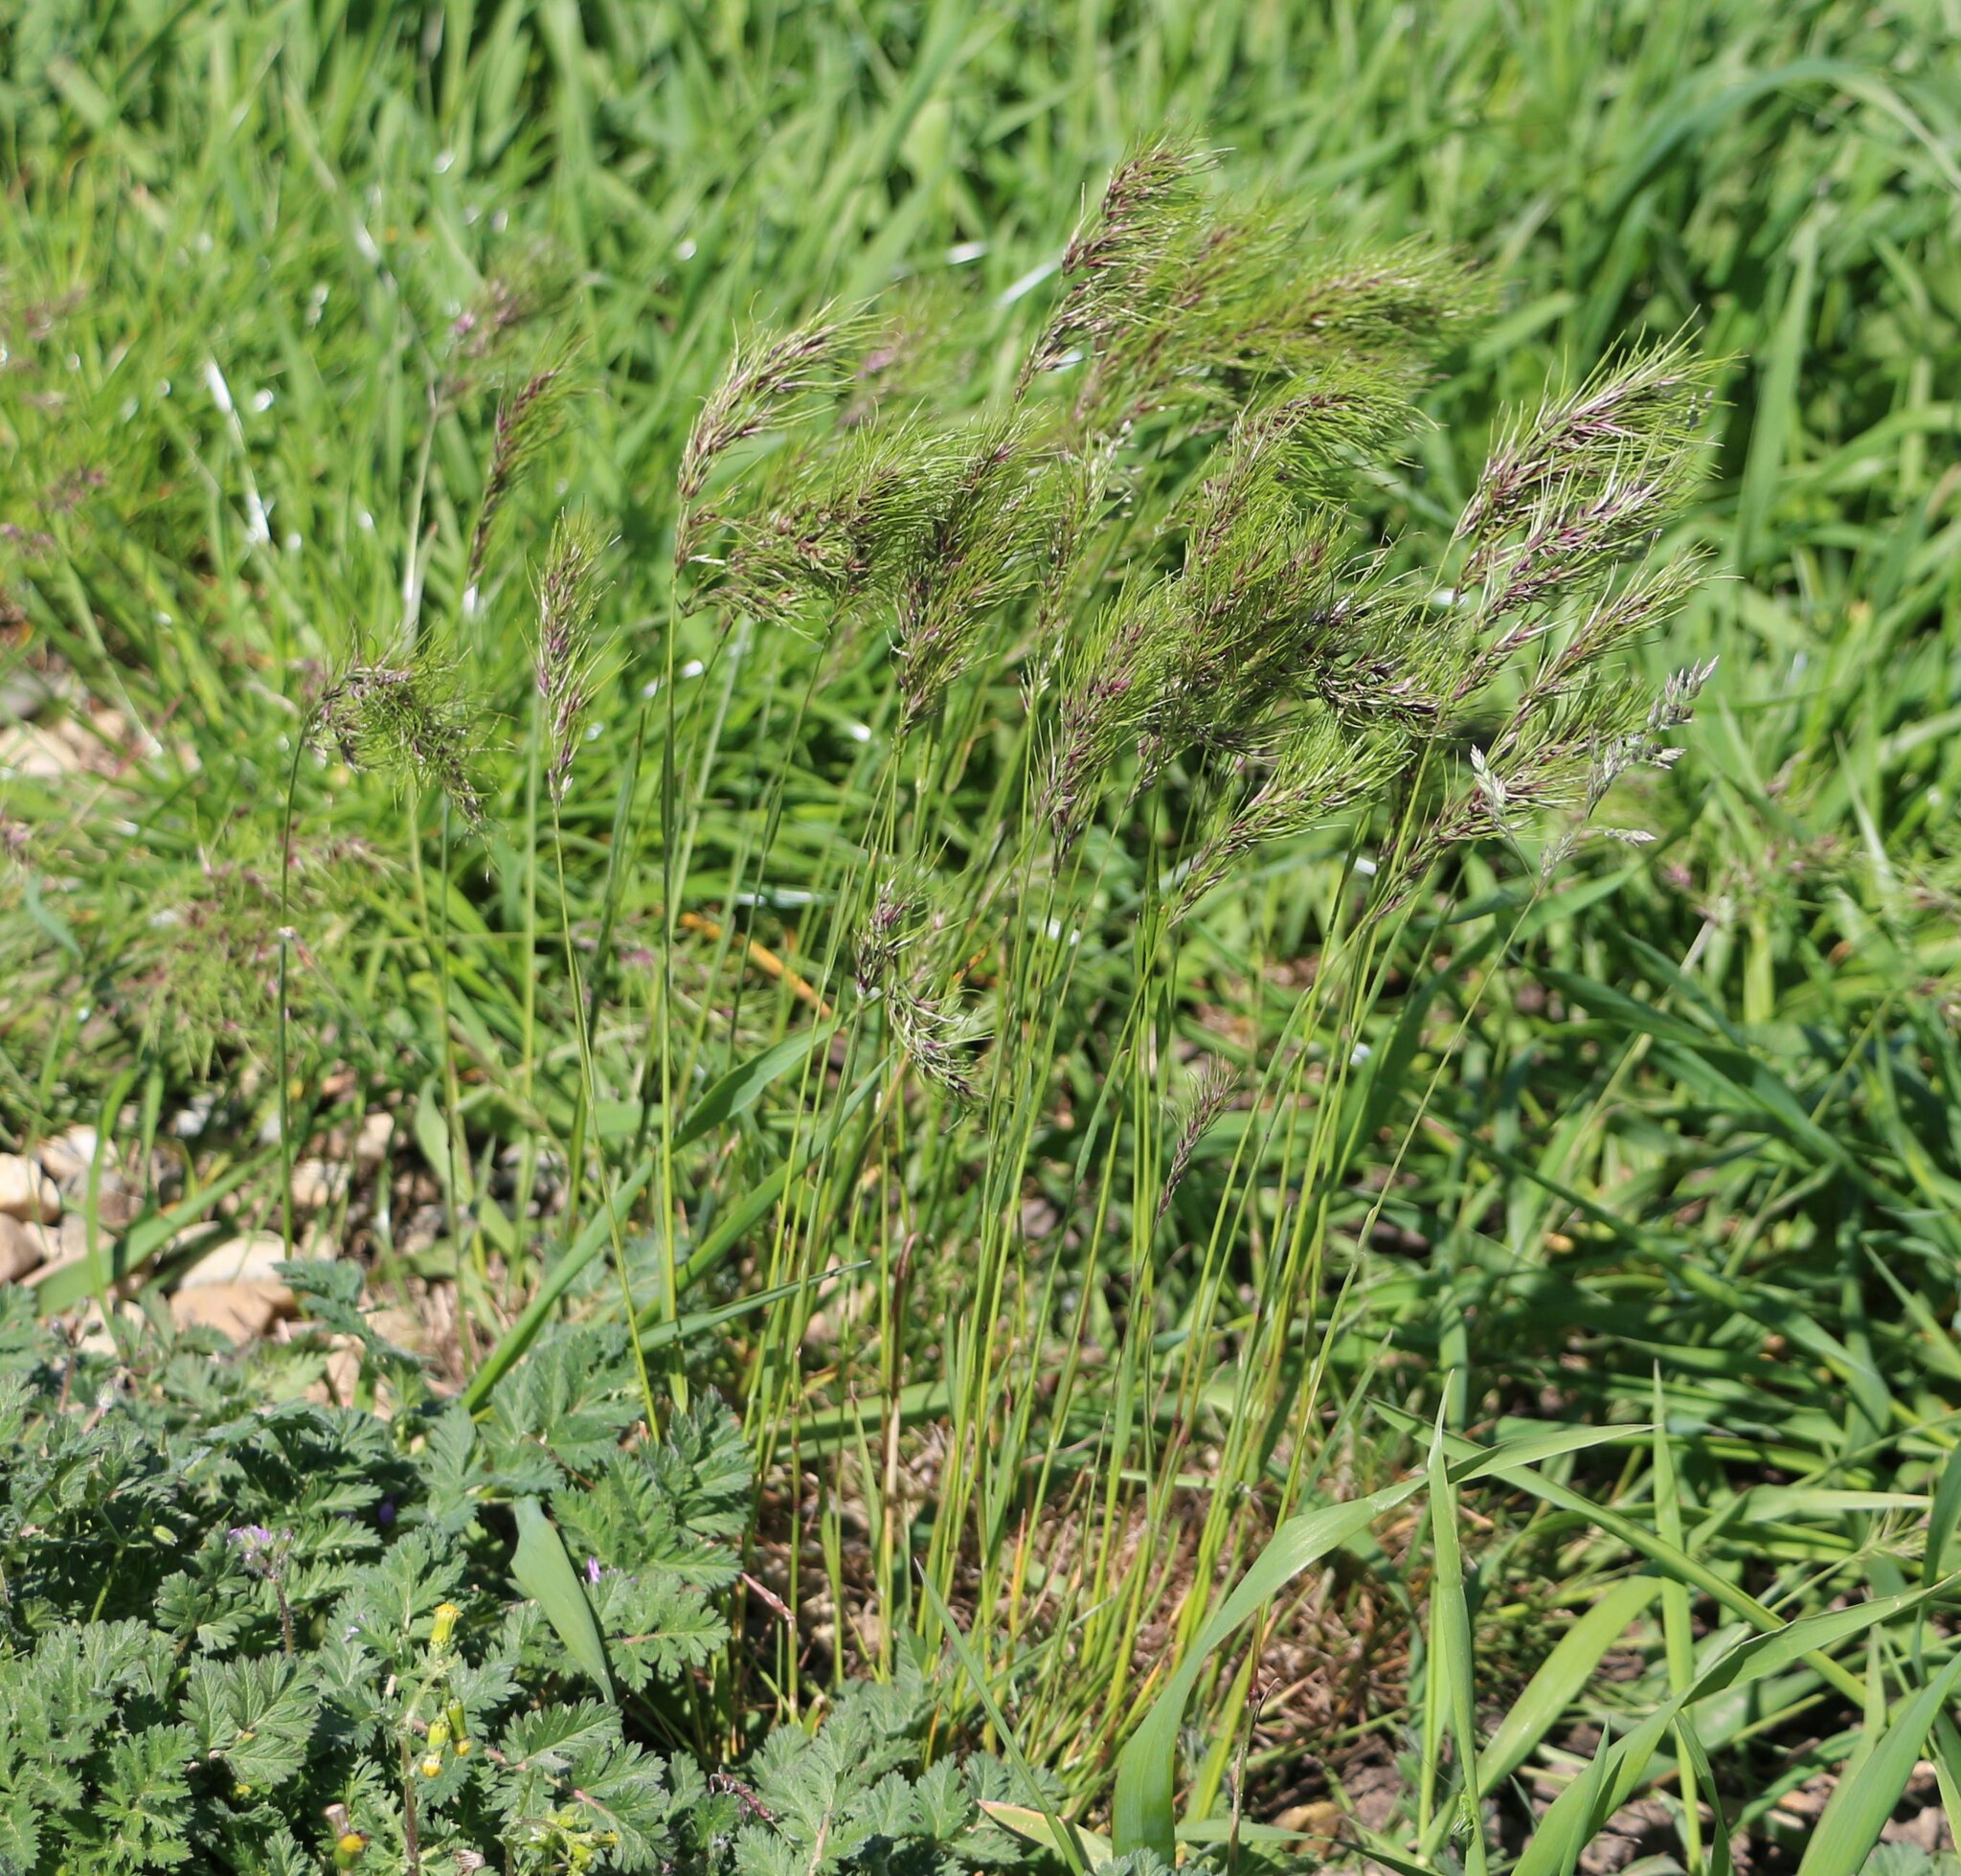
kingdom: Plantae
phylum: Tracheophyta
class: Liliopsida
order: Poales
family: Poaceae
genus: Poa
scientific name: Poa bulbosa
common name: Bulbous bluegrass
